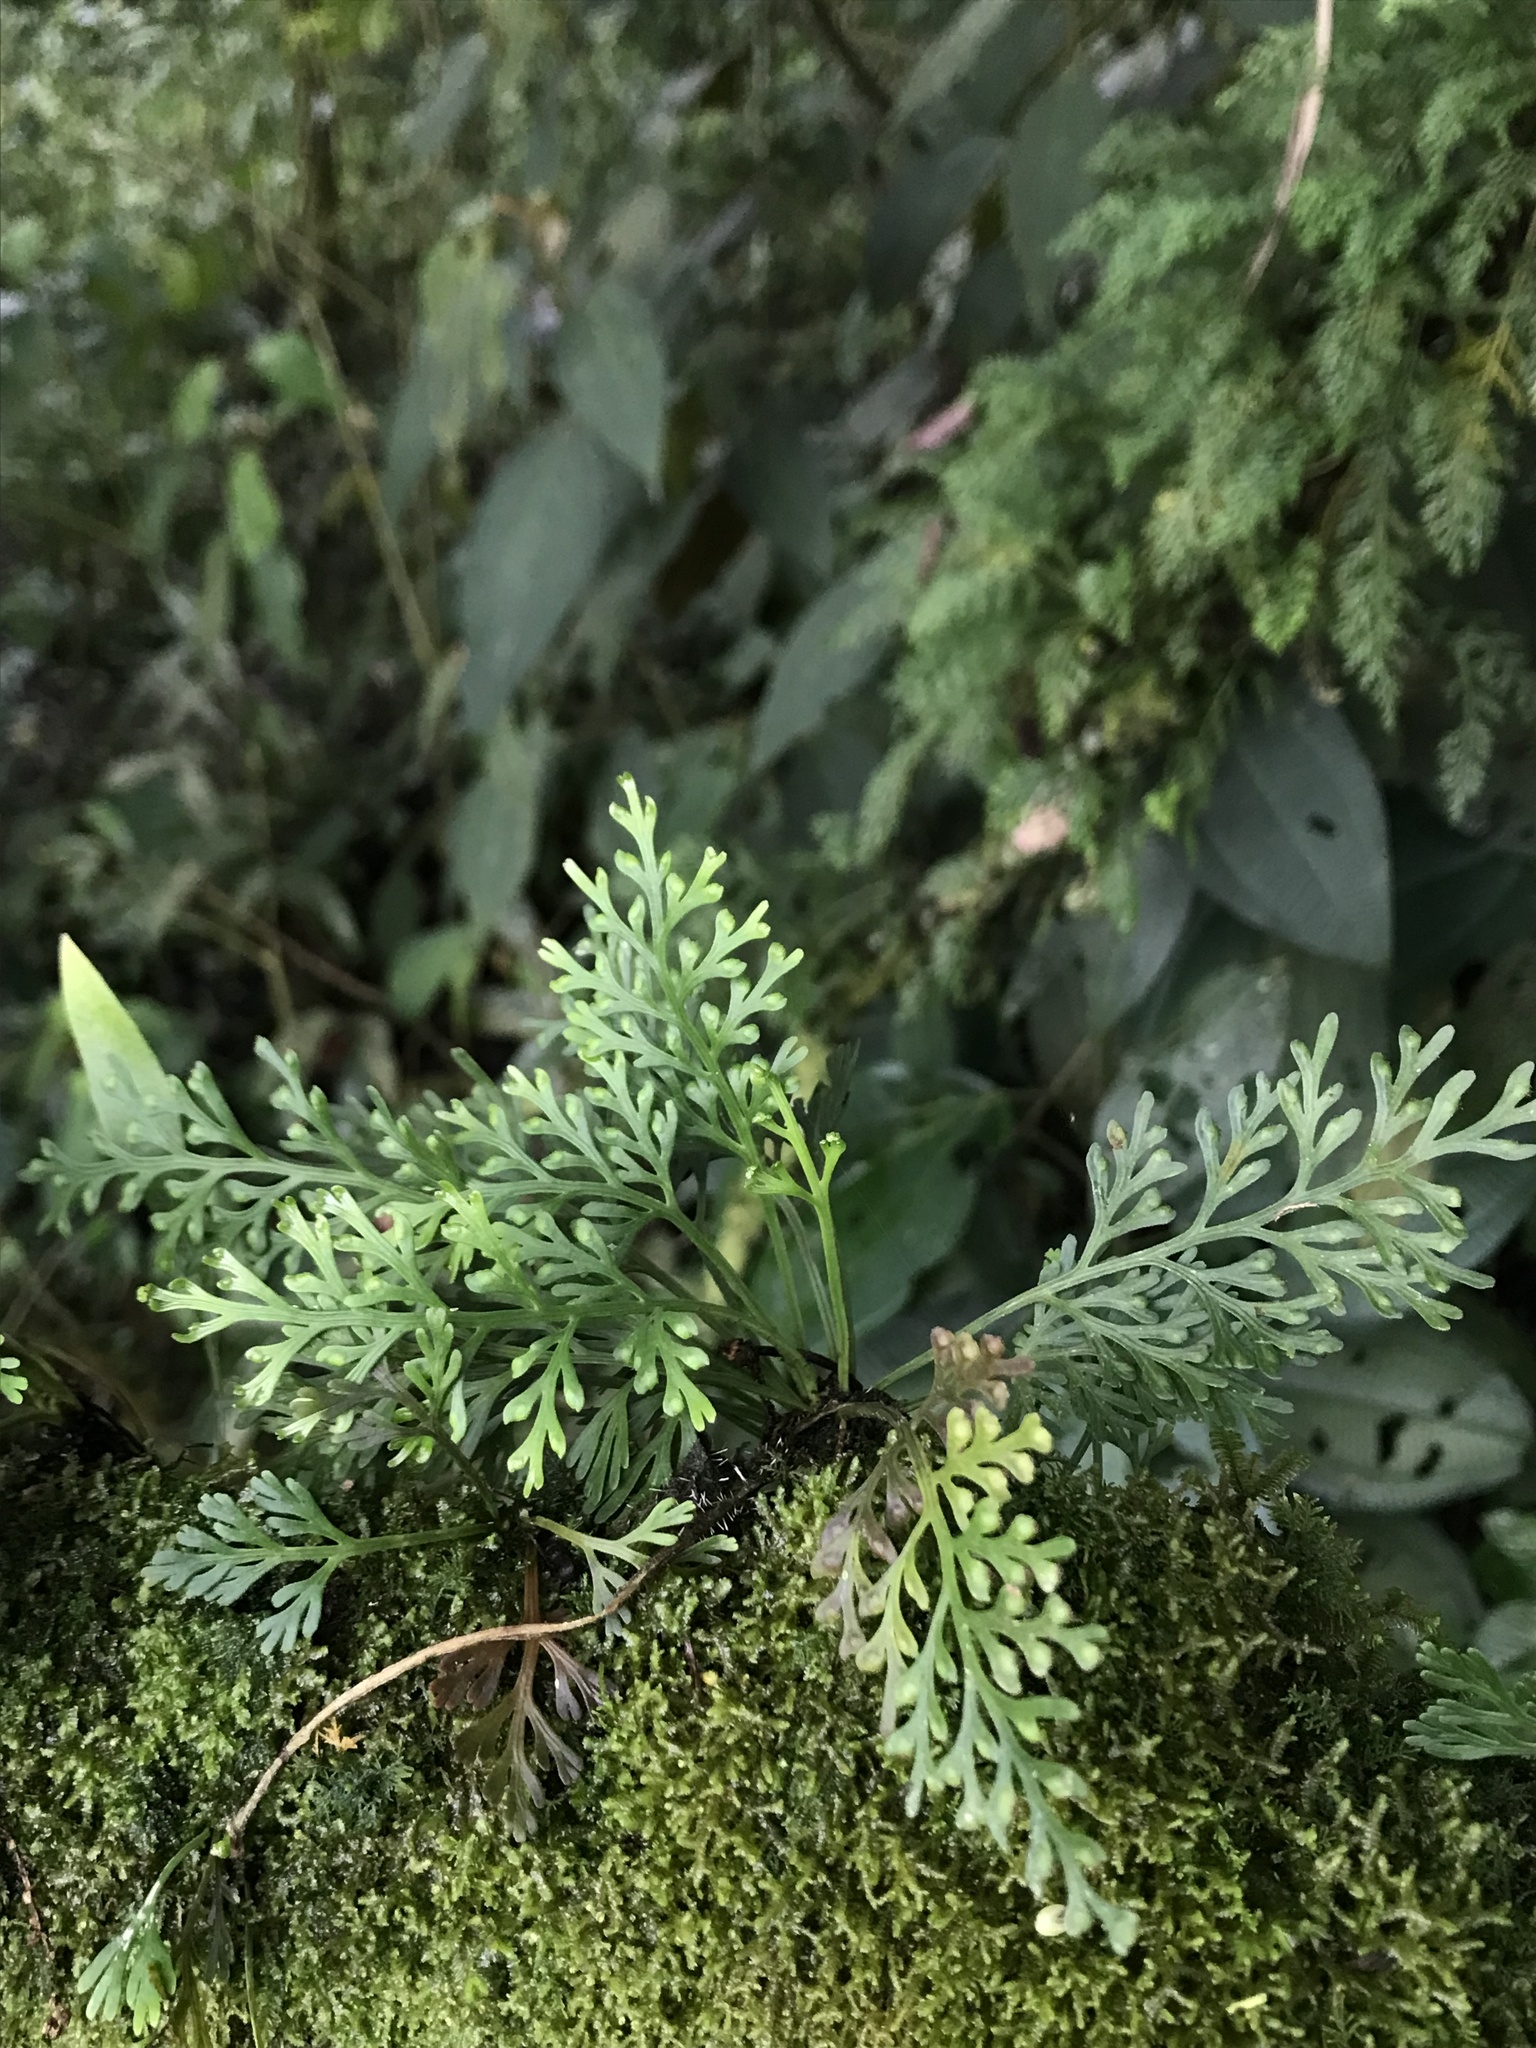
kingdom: Plantae
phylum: Tracheophyta
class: Polypodiopsida
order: Polypodiales
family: Aspleniaceae
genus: Asplenium
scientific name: Asplenium theciferum
